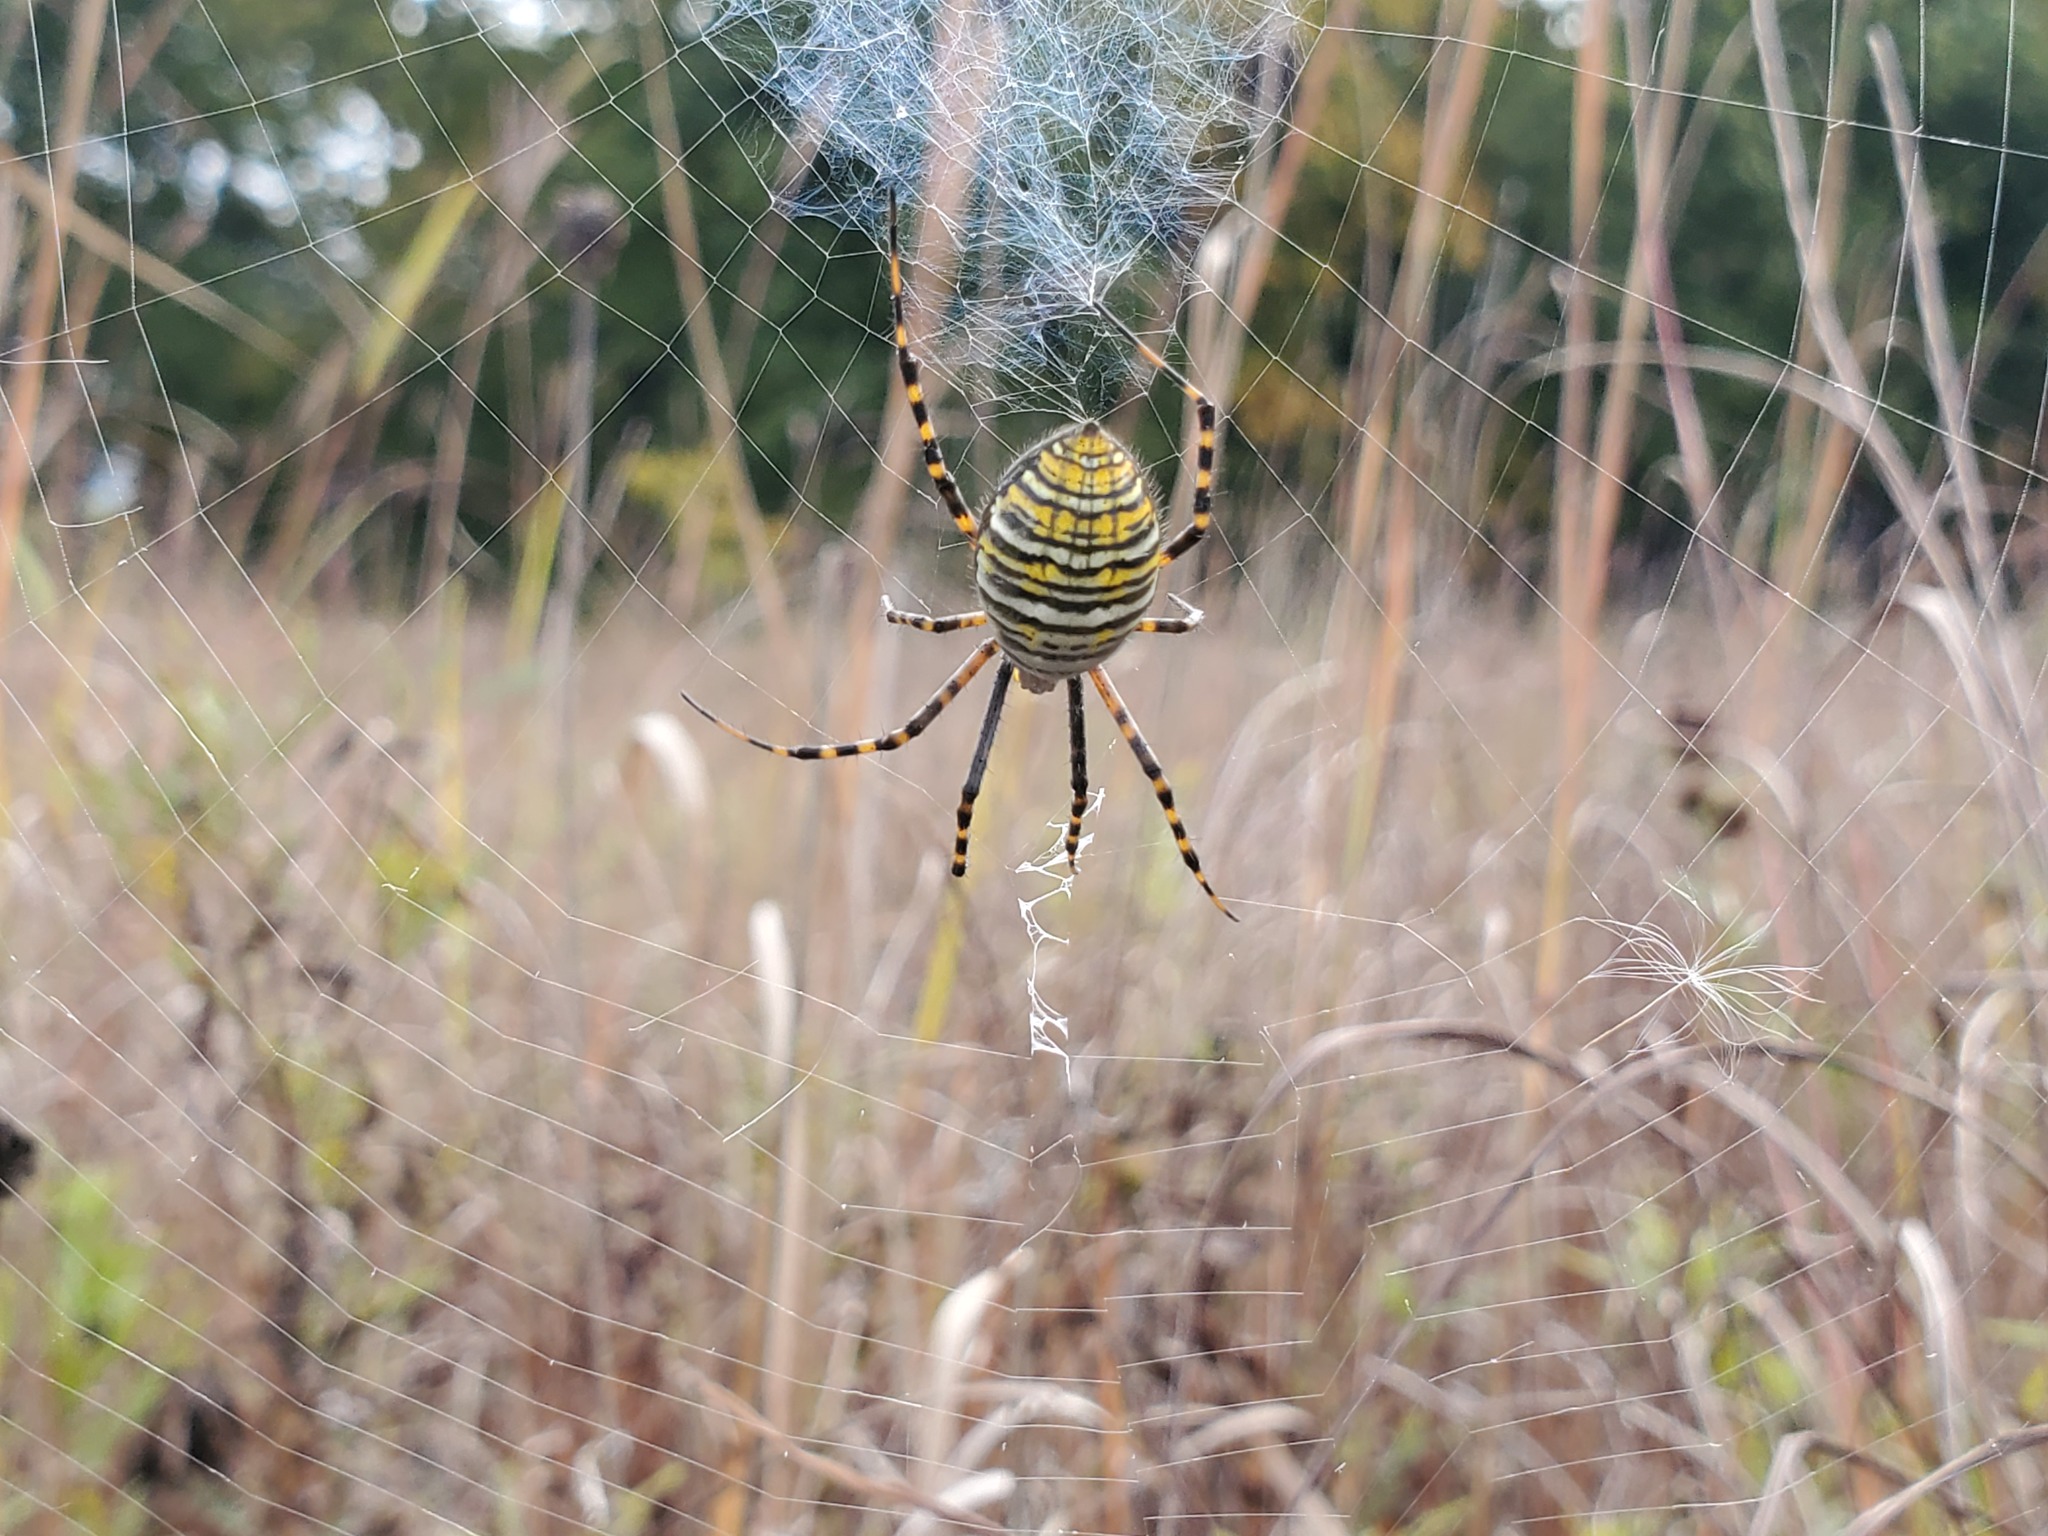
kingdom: Animalia
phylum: Arthropoda
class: Arachnida
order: Araneae
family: Araneidae
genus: Argiope
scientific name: Argiope trifasciata
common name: Banded garden spider
